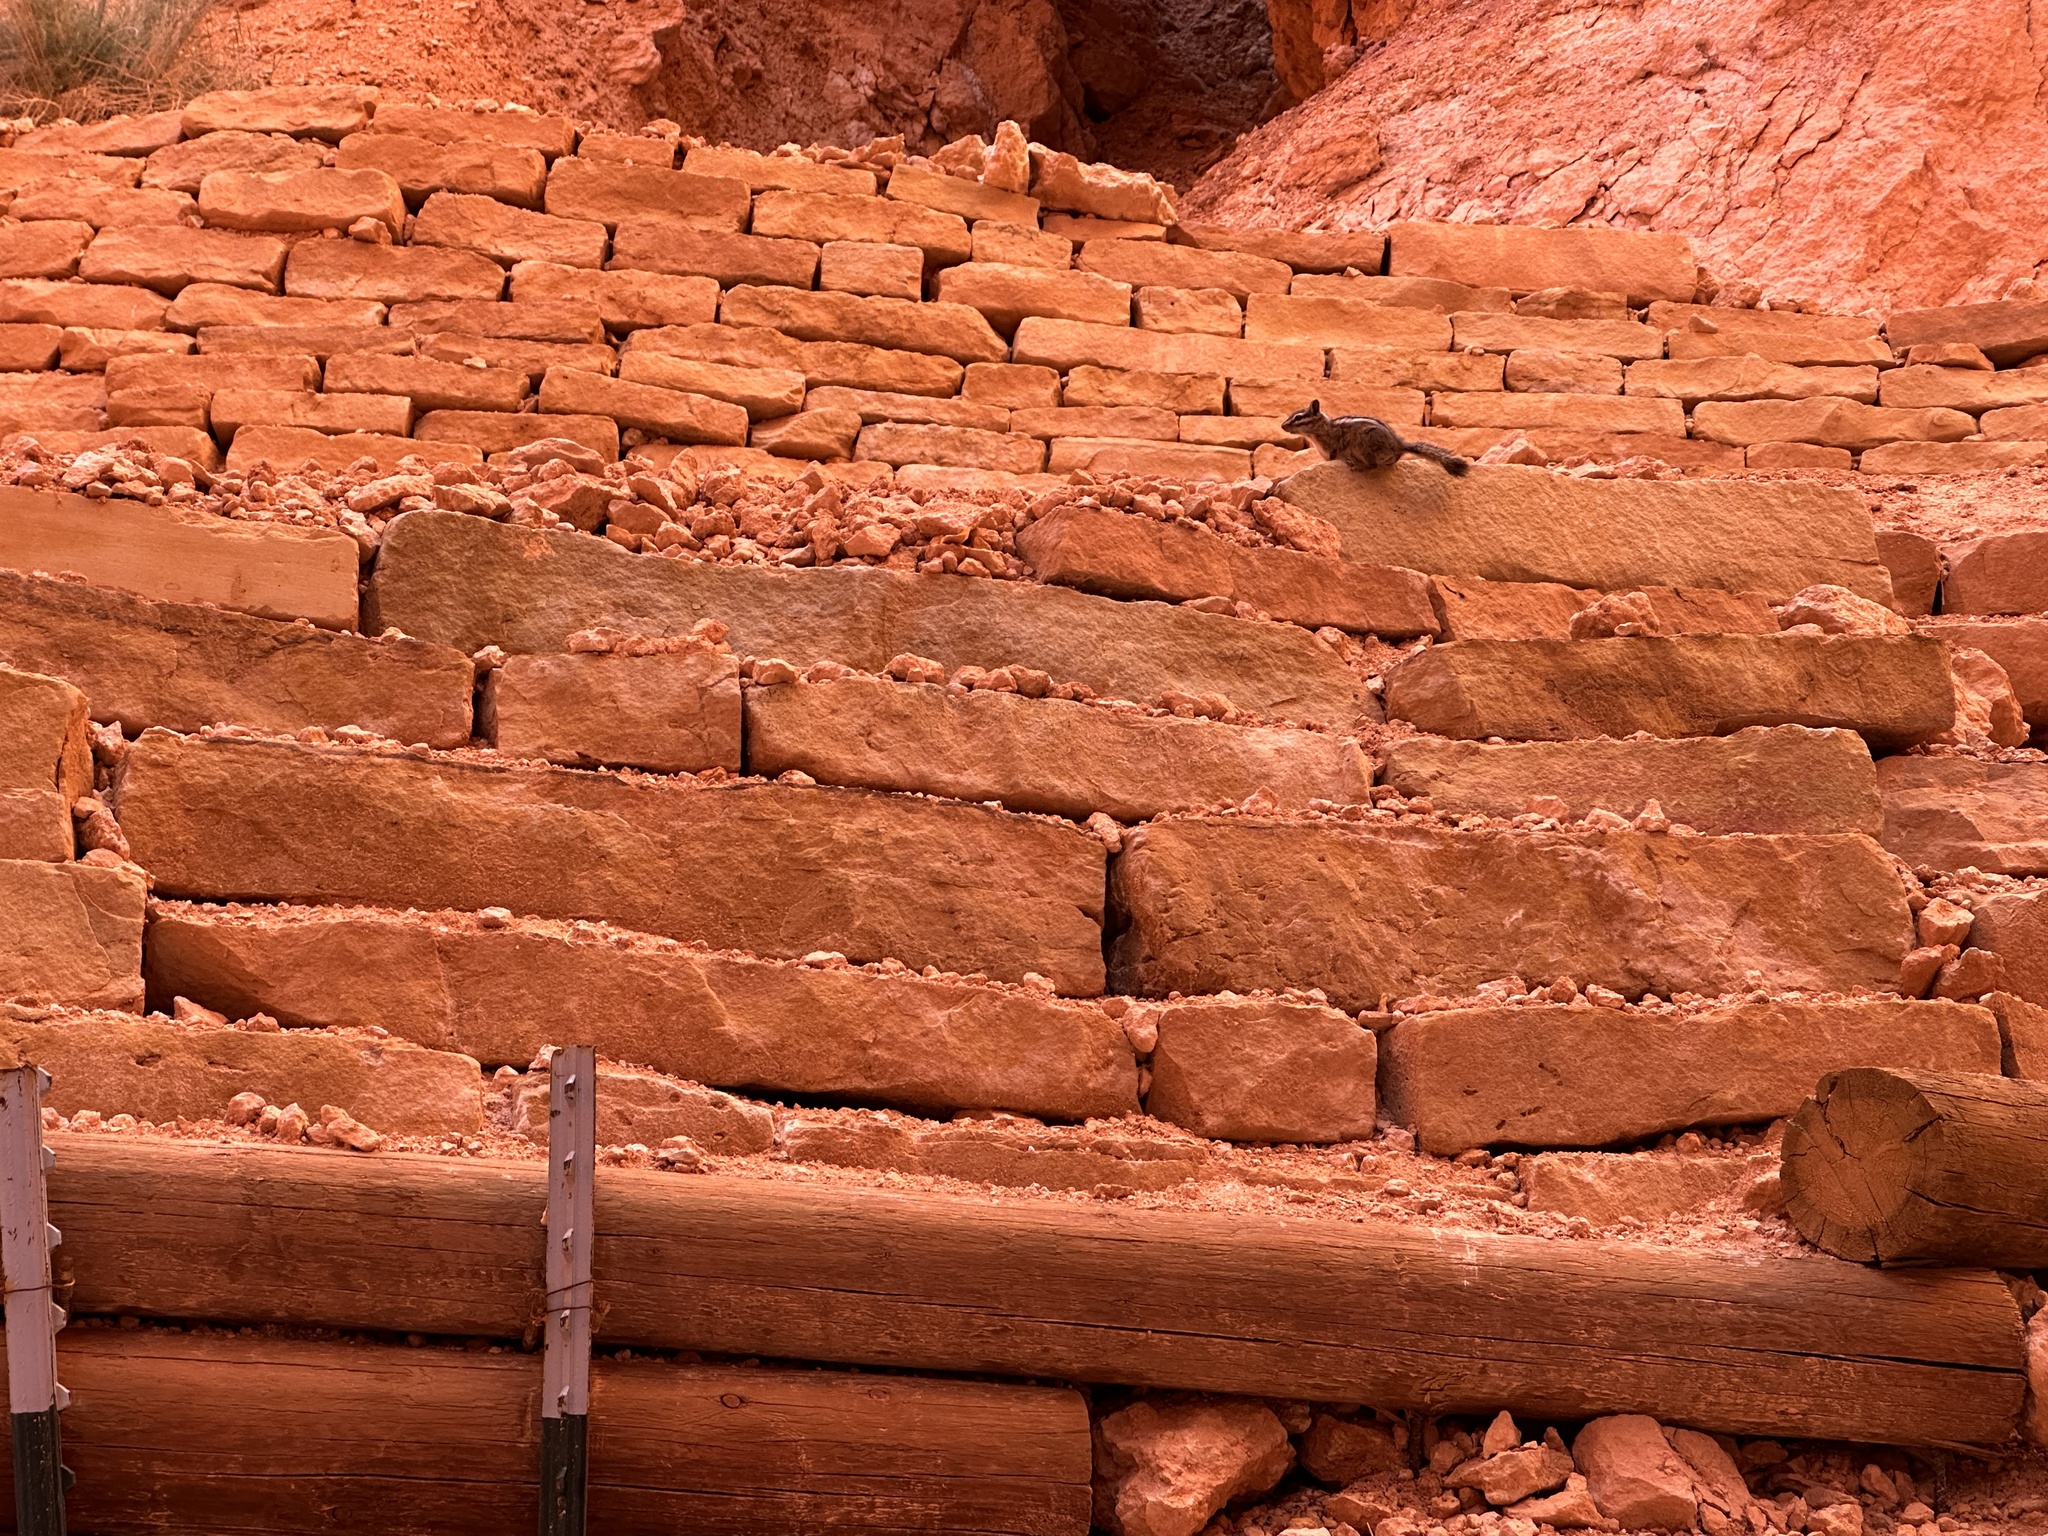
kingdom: Animalia
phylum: Chordata
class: Mammalia
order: Rodentia
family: Sciuridae
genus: Tamias
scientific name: Tamias umbrinus
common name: Uinta chipmunk
